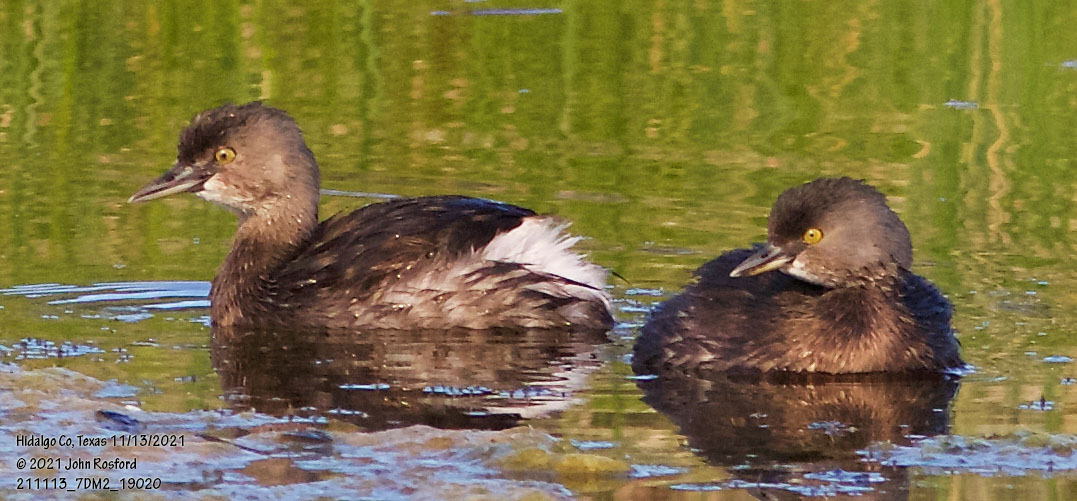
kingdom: Animalia
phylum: Chordata
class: Aves
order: Podicipediformes
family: Podicipedidae
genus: Tachybaptus
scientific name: Tachybaptus dominicus
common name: Least grebe
